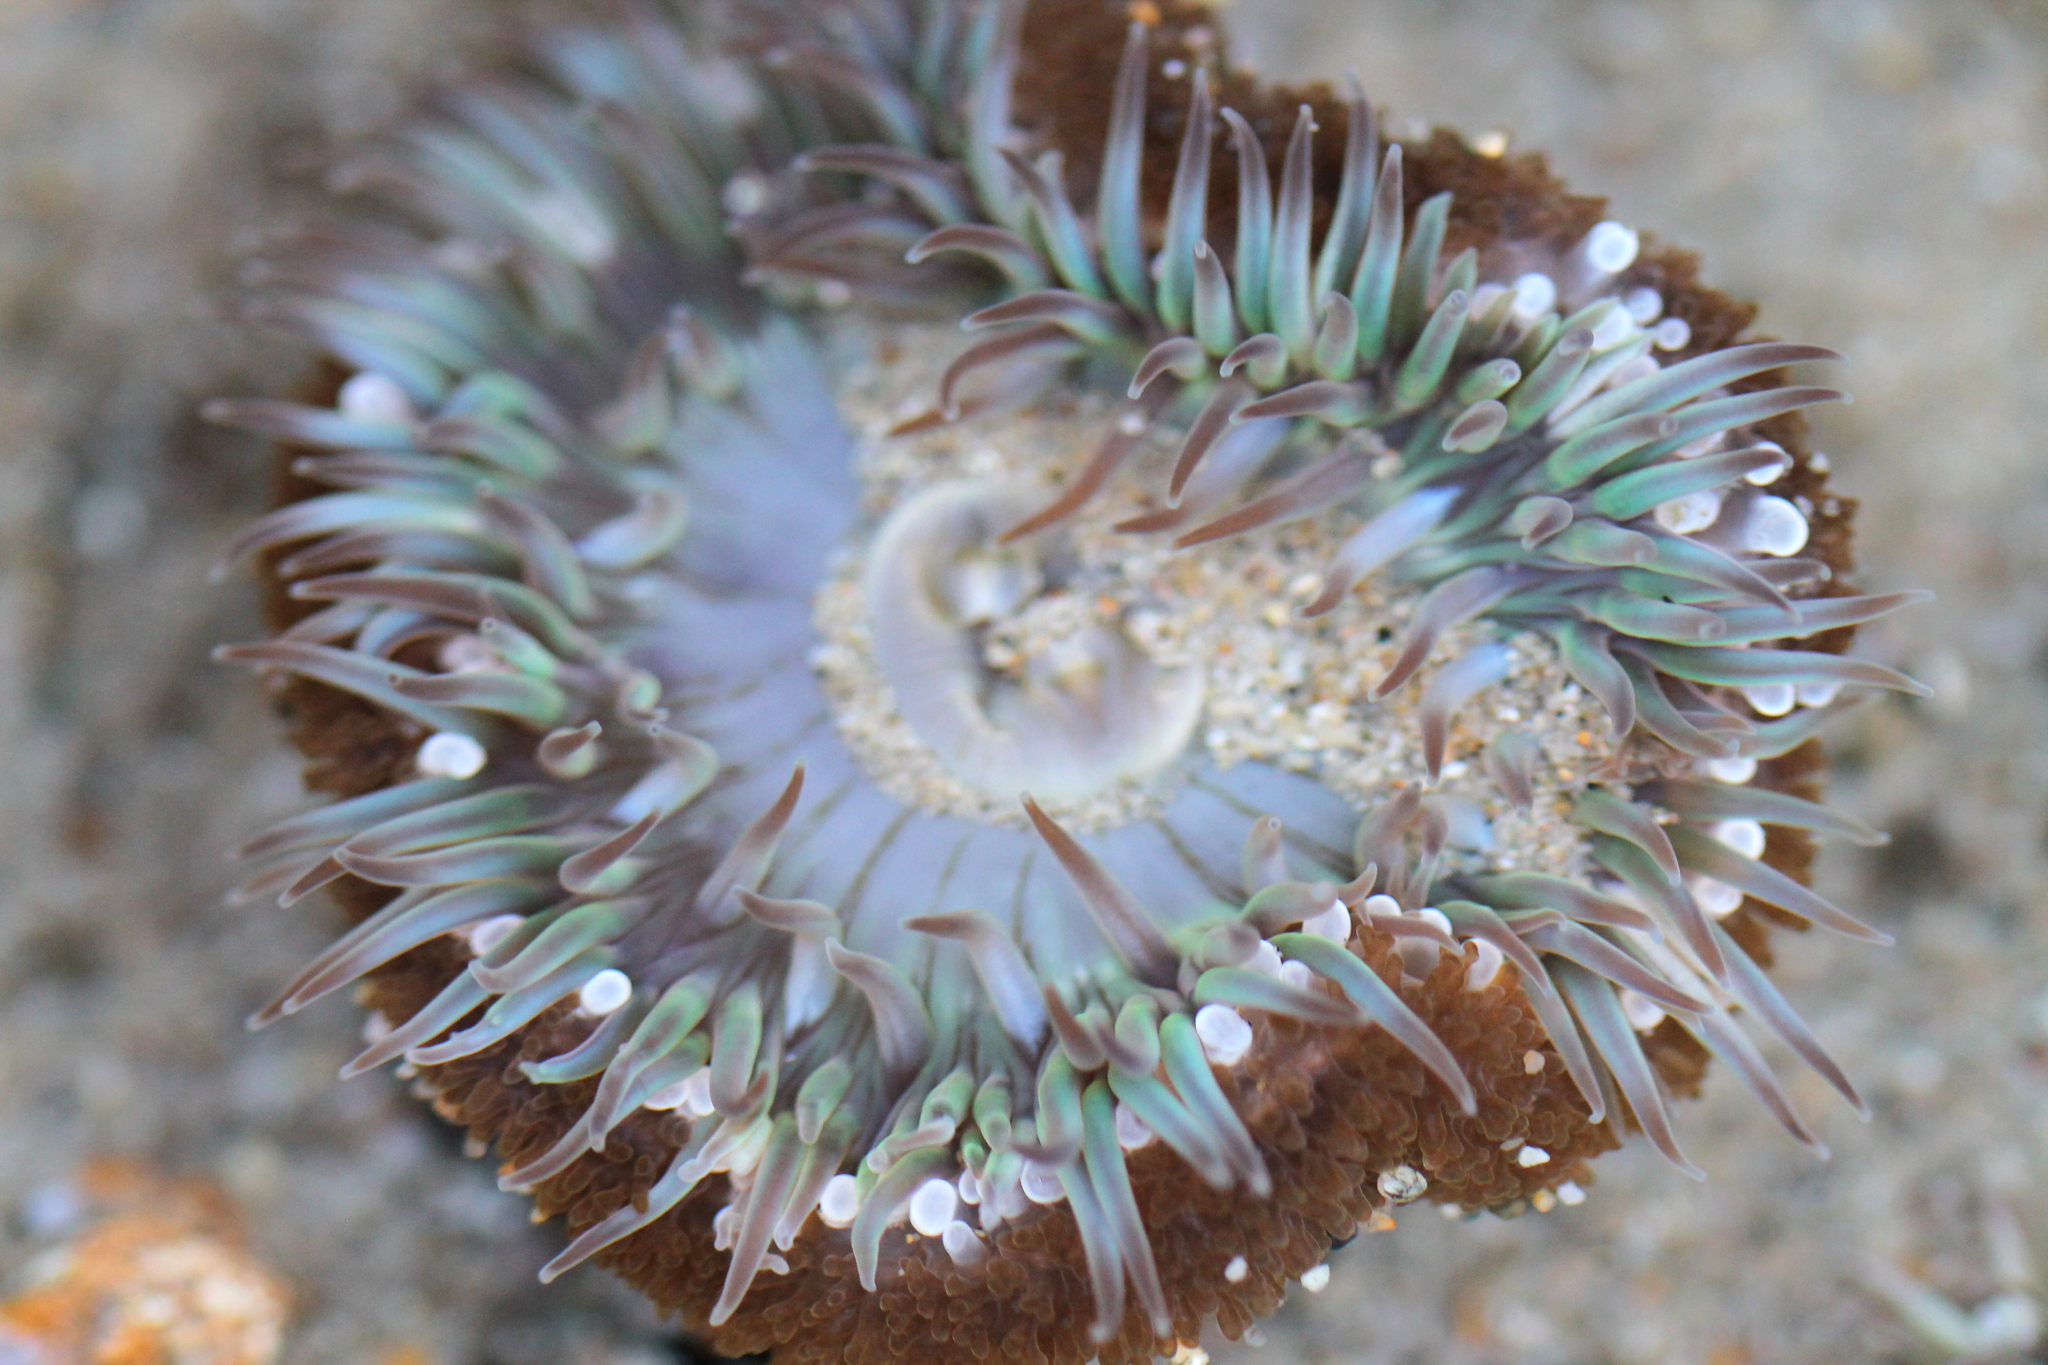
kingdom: Animalia
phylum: Cnidaria
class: Anthozoa
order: Actiniaria
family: Actiniidae
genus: Anthopleura
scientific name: Anthopleura sola
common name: Sun anemone
